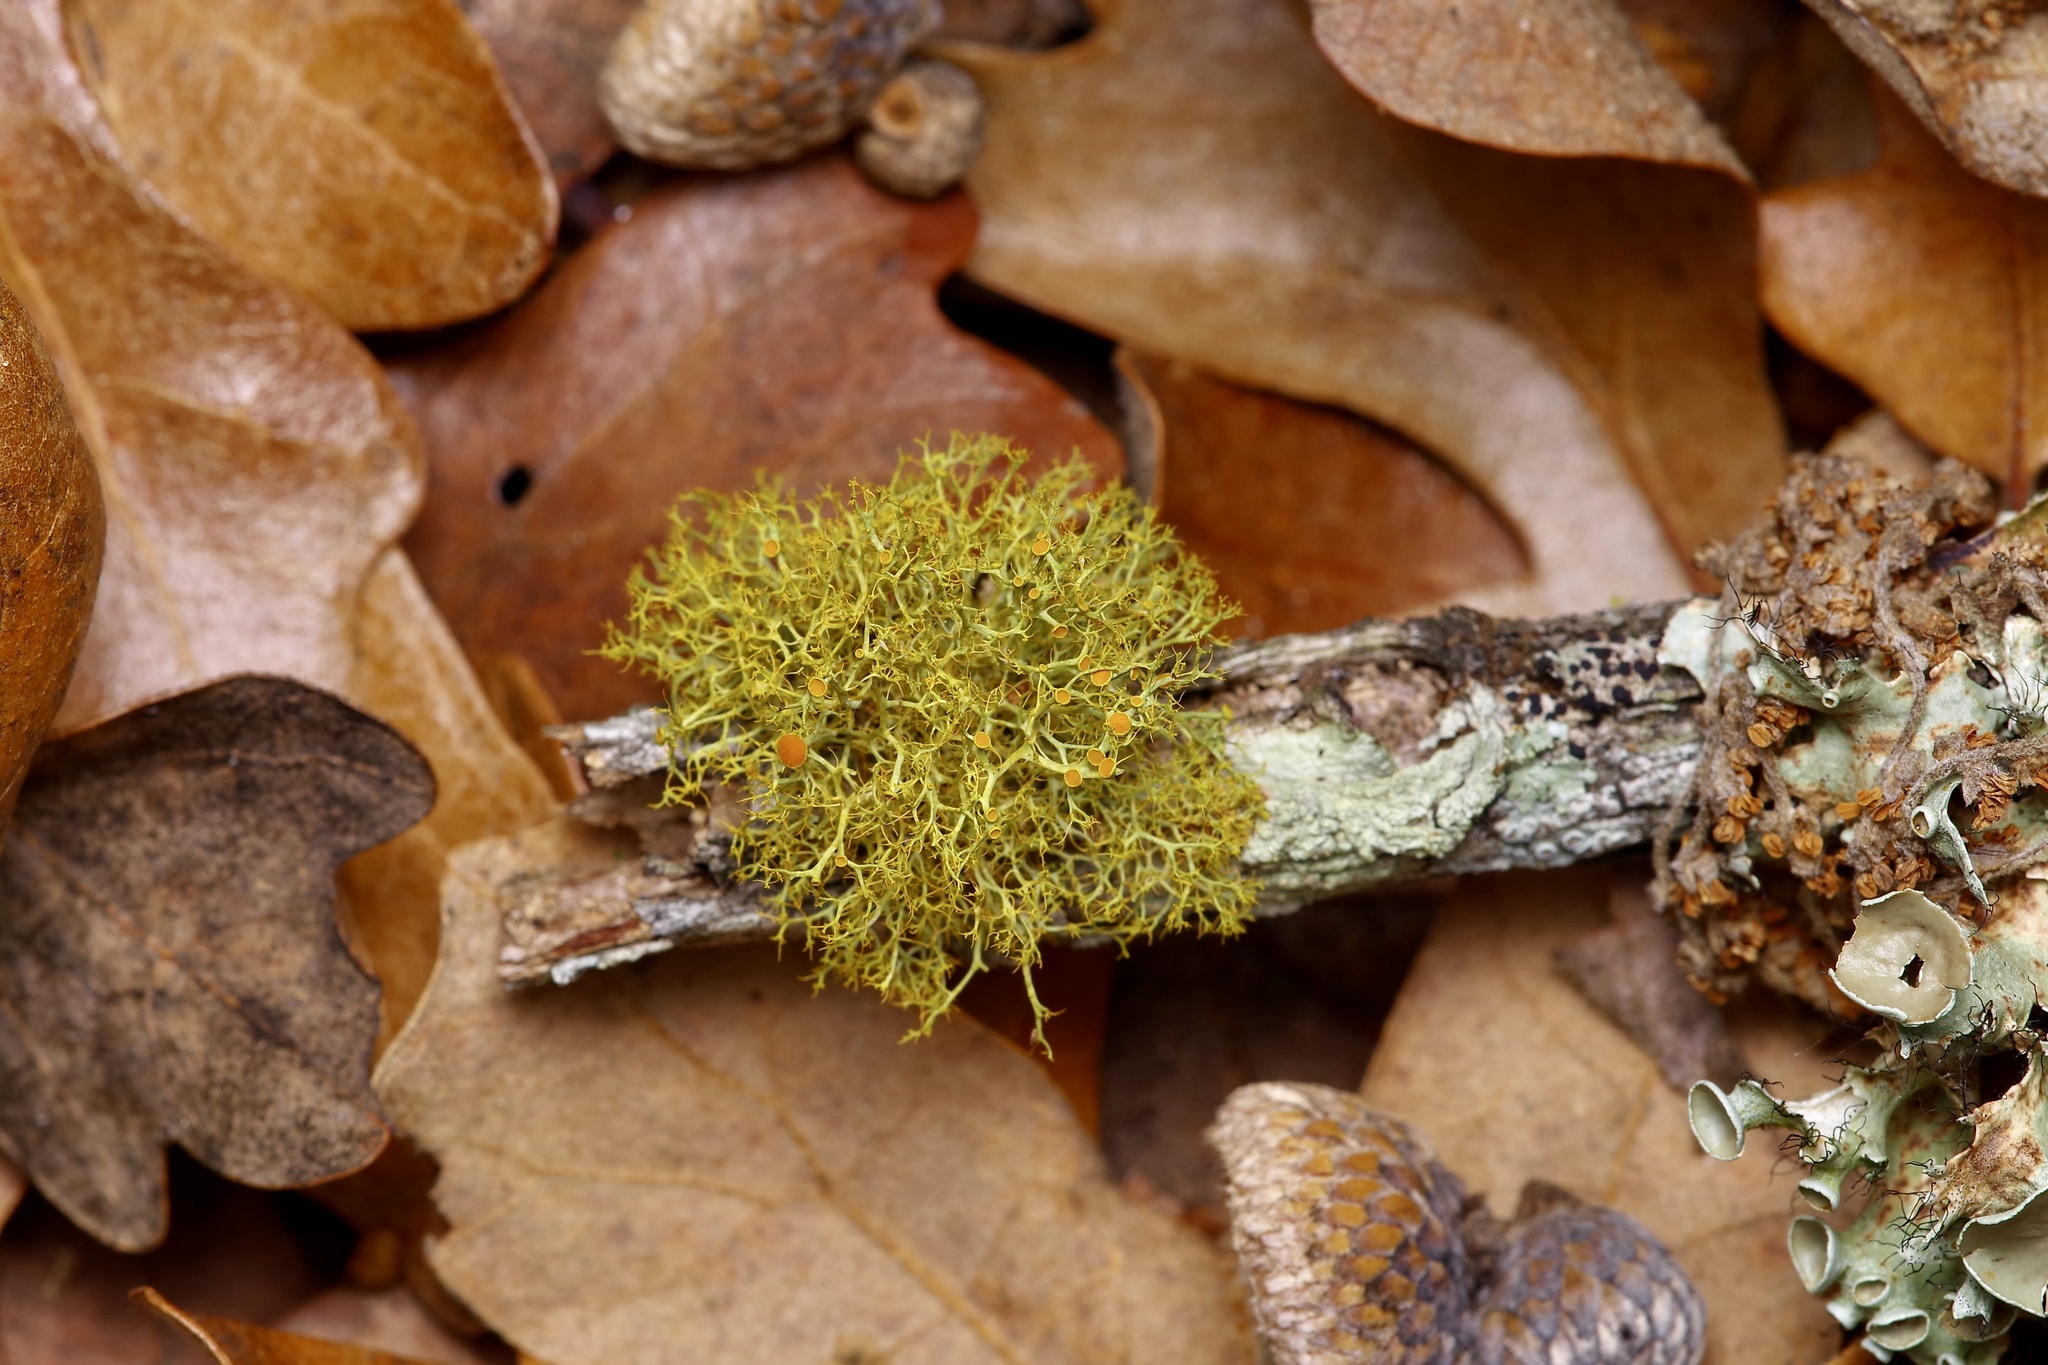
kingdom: Fungi
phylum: Ascomycota
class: Lecanoromycetes
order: Teloschistales
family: Teloschistaceae
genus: Teloschistes
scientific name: Teloschistes exilis
